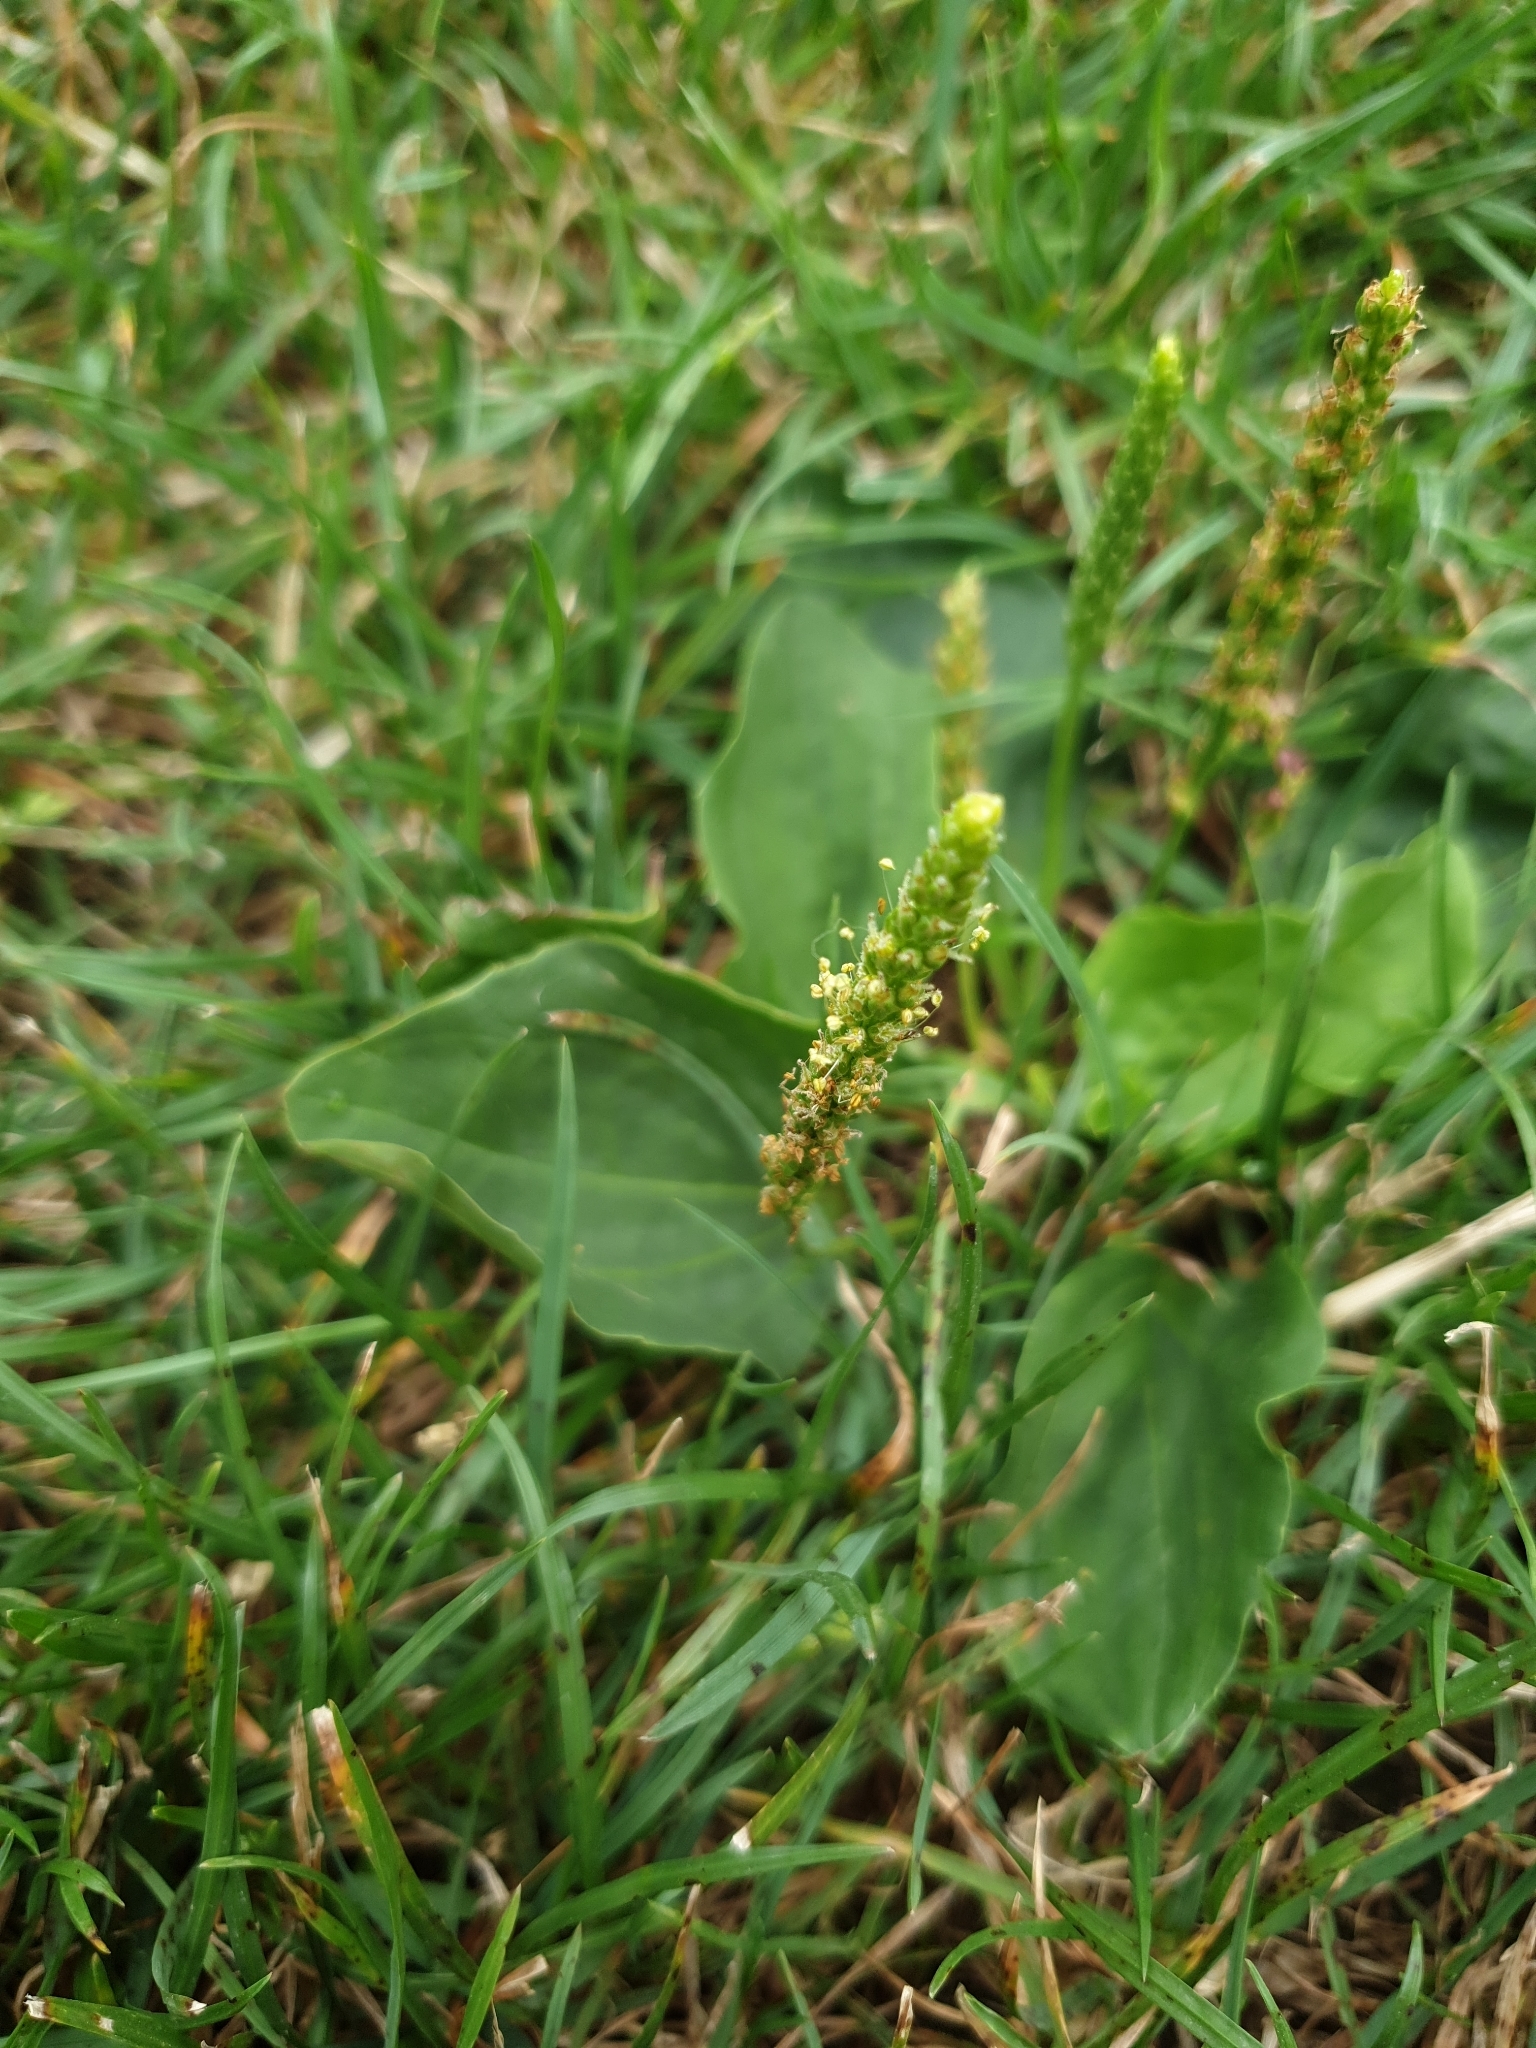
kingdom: Plantae
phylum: Tracheophyta
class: Magnoliopsida
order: Lamiales
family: Plantaginaceae
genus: Plantago
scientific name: Plantago major
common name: Common plantain
